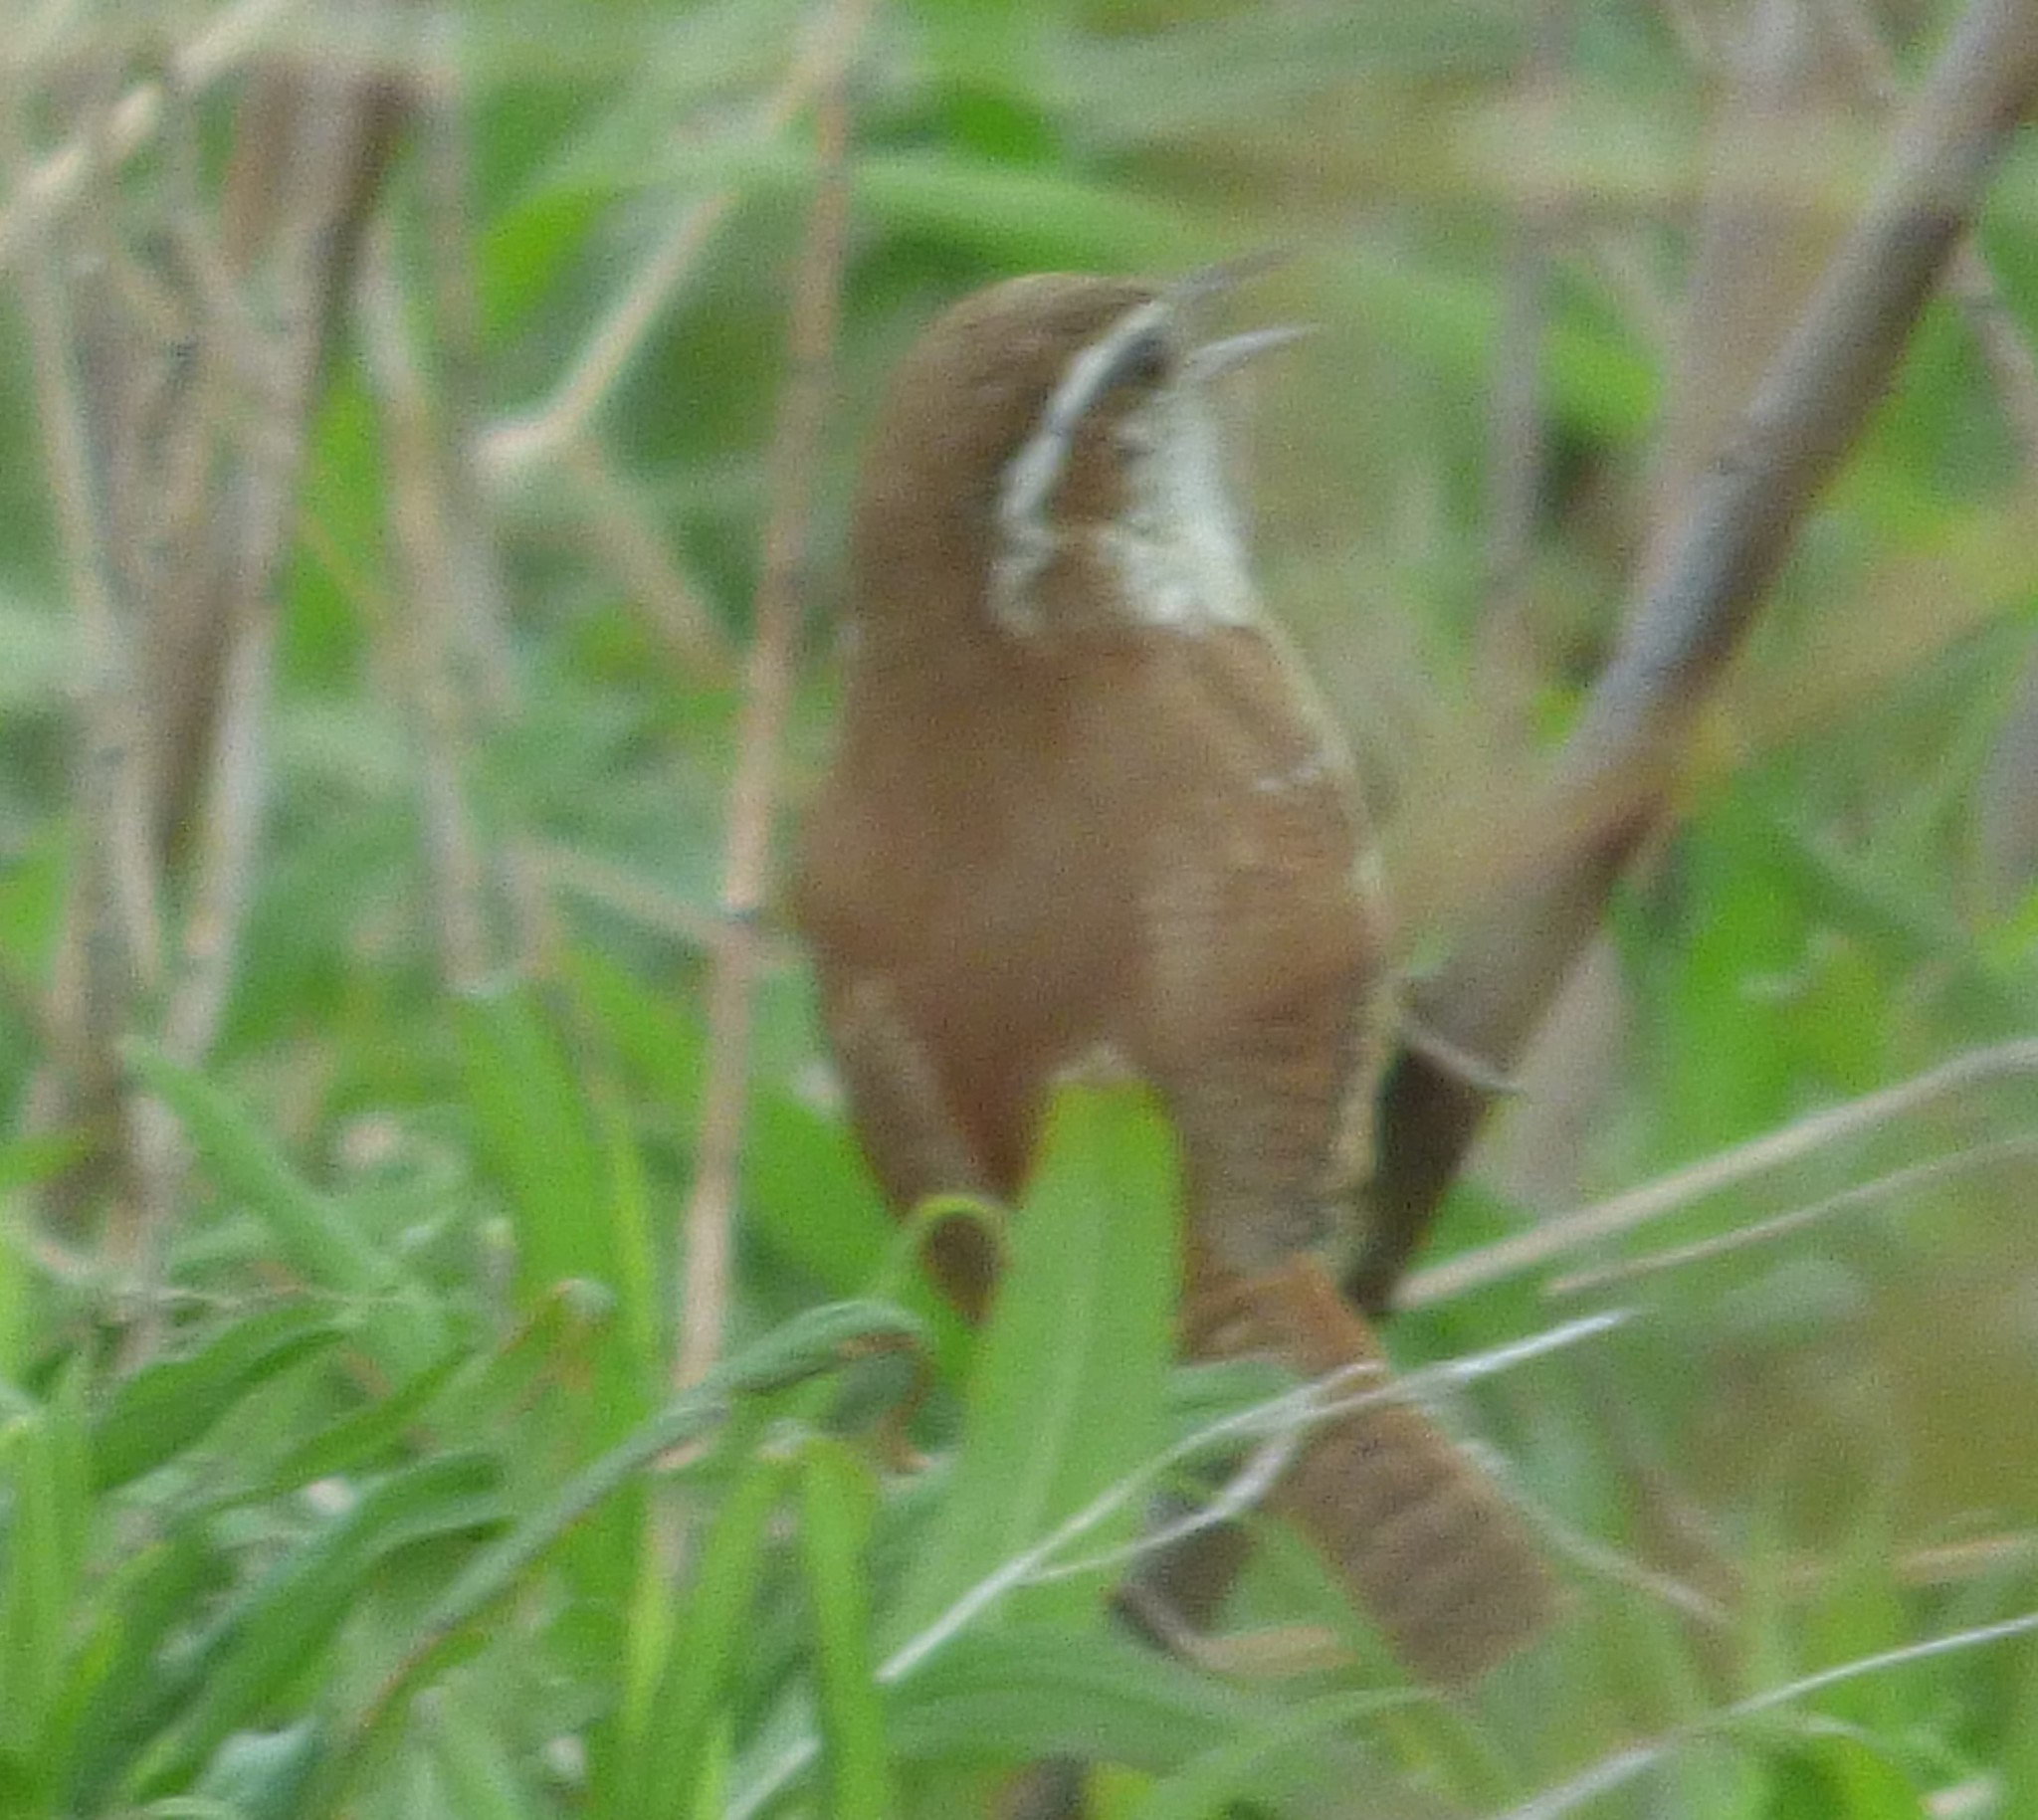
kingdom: Animalia
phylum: Chordata
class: Aves
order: Passeriformes
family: Troglodytidae
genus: Thryothorus
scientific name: Thryothorus ludovicianus
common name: Carolina wren
